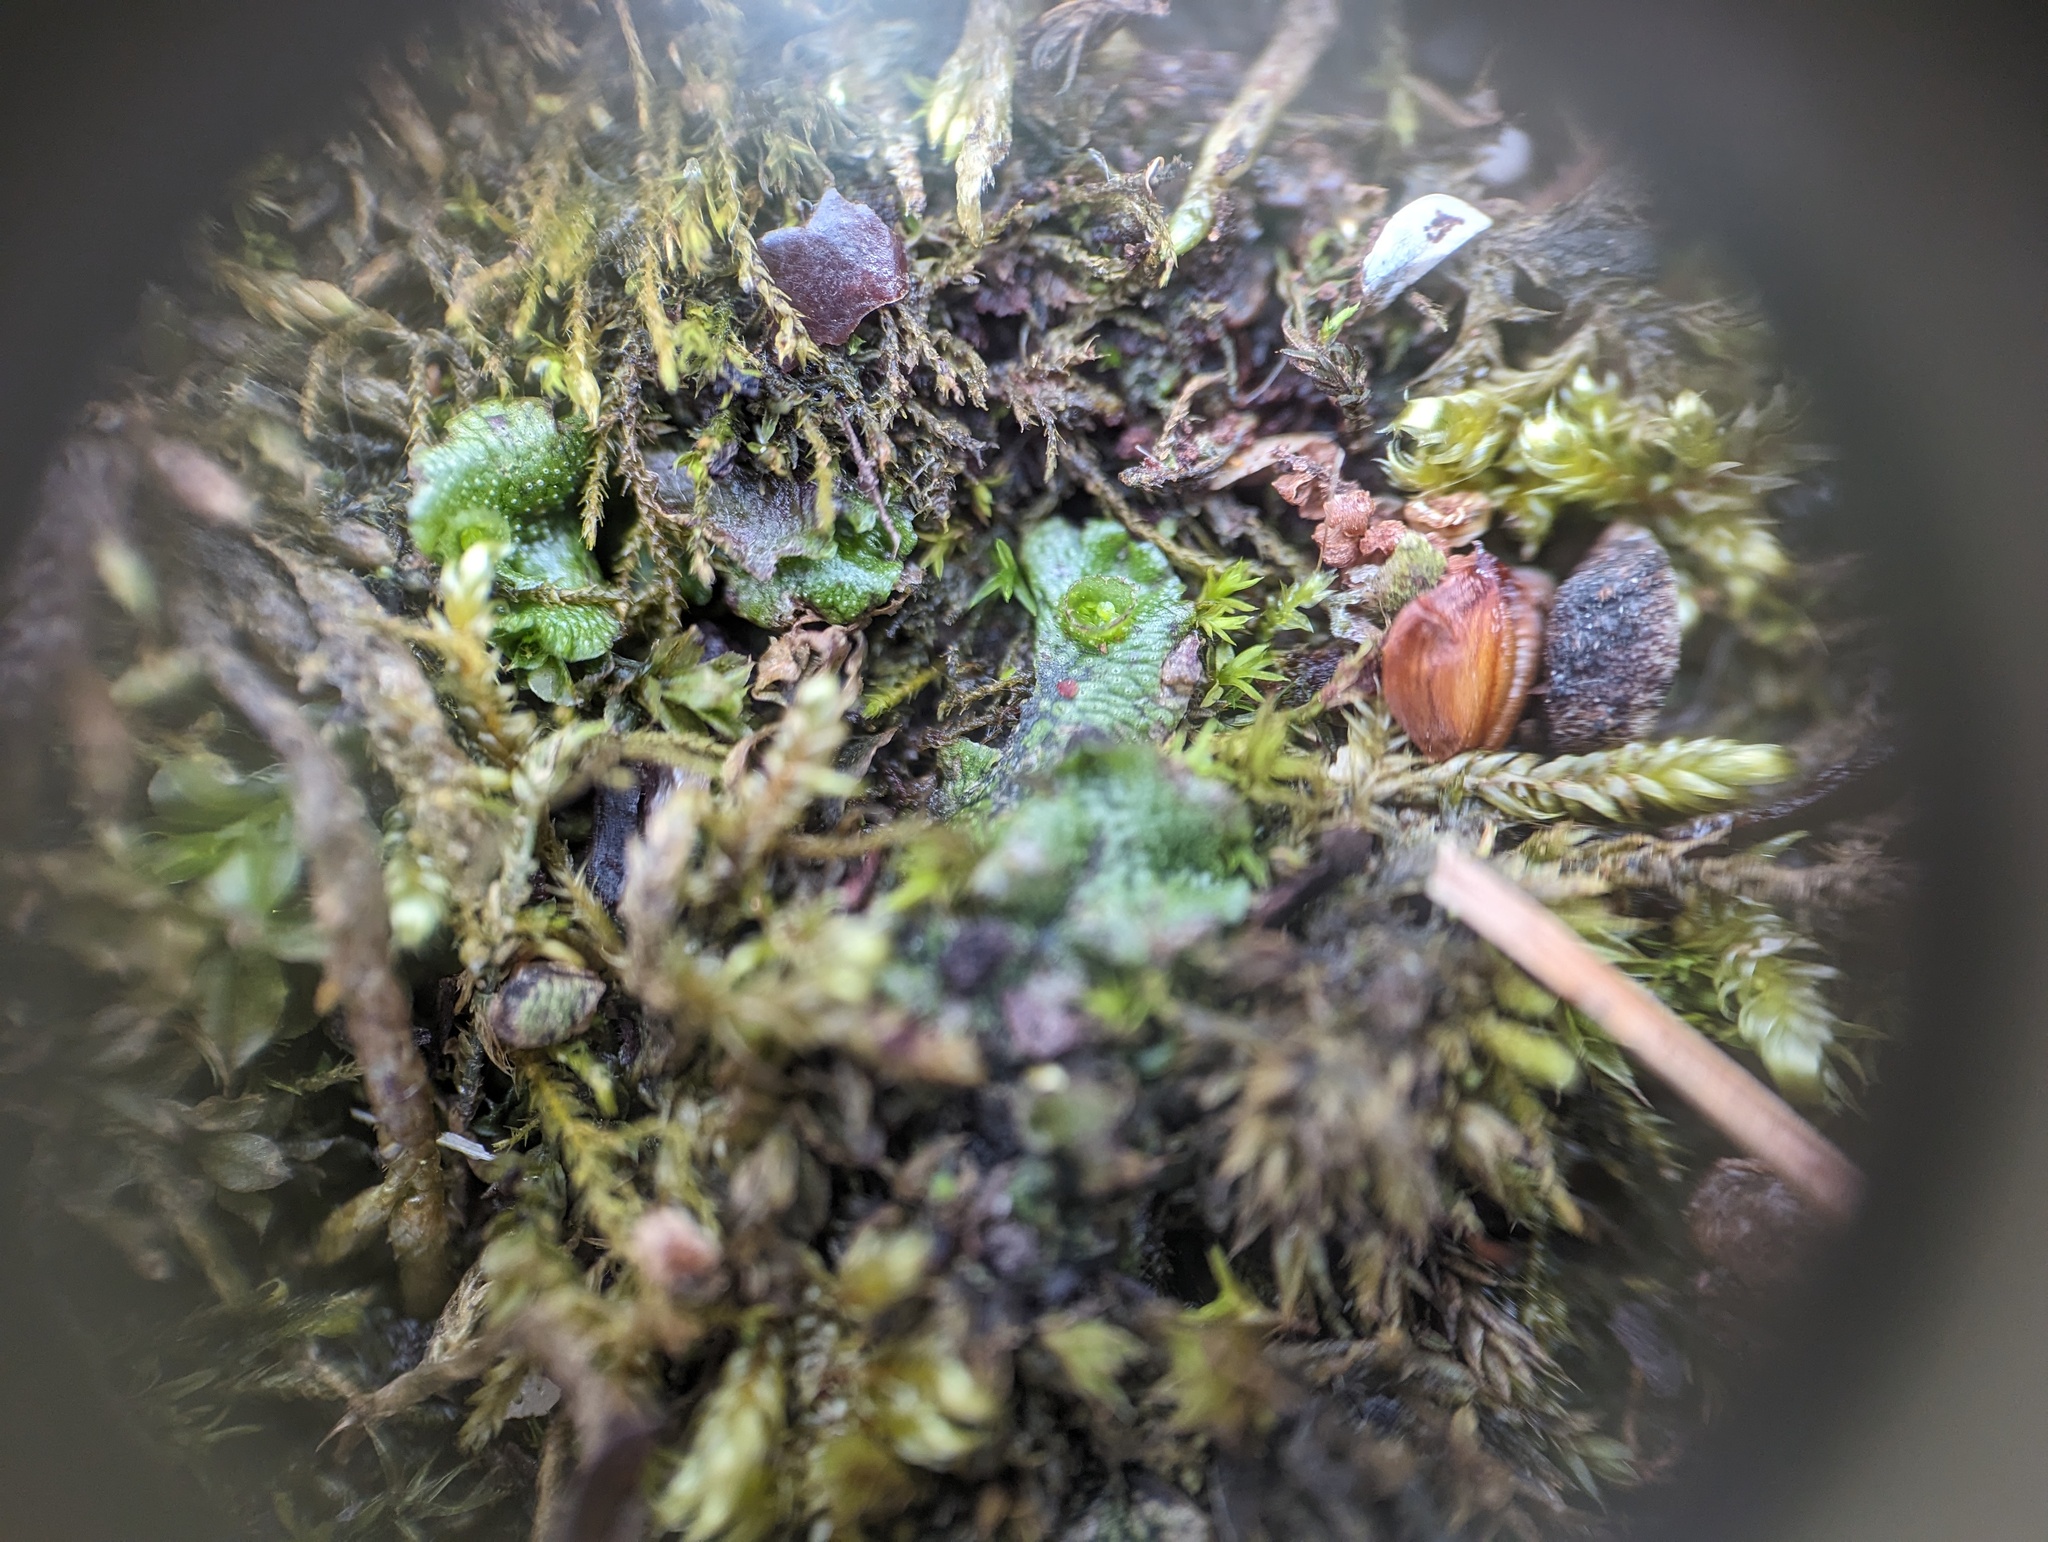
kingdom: Plantae
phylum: Marchantiophyta
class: Marchantiopsida
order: Marchantiales
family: Marchantiaceae
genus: Marchantia
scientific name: Marchantia polymorpha
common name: Common liverwort
